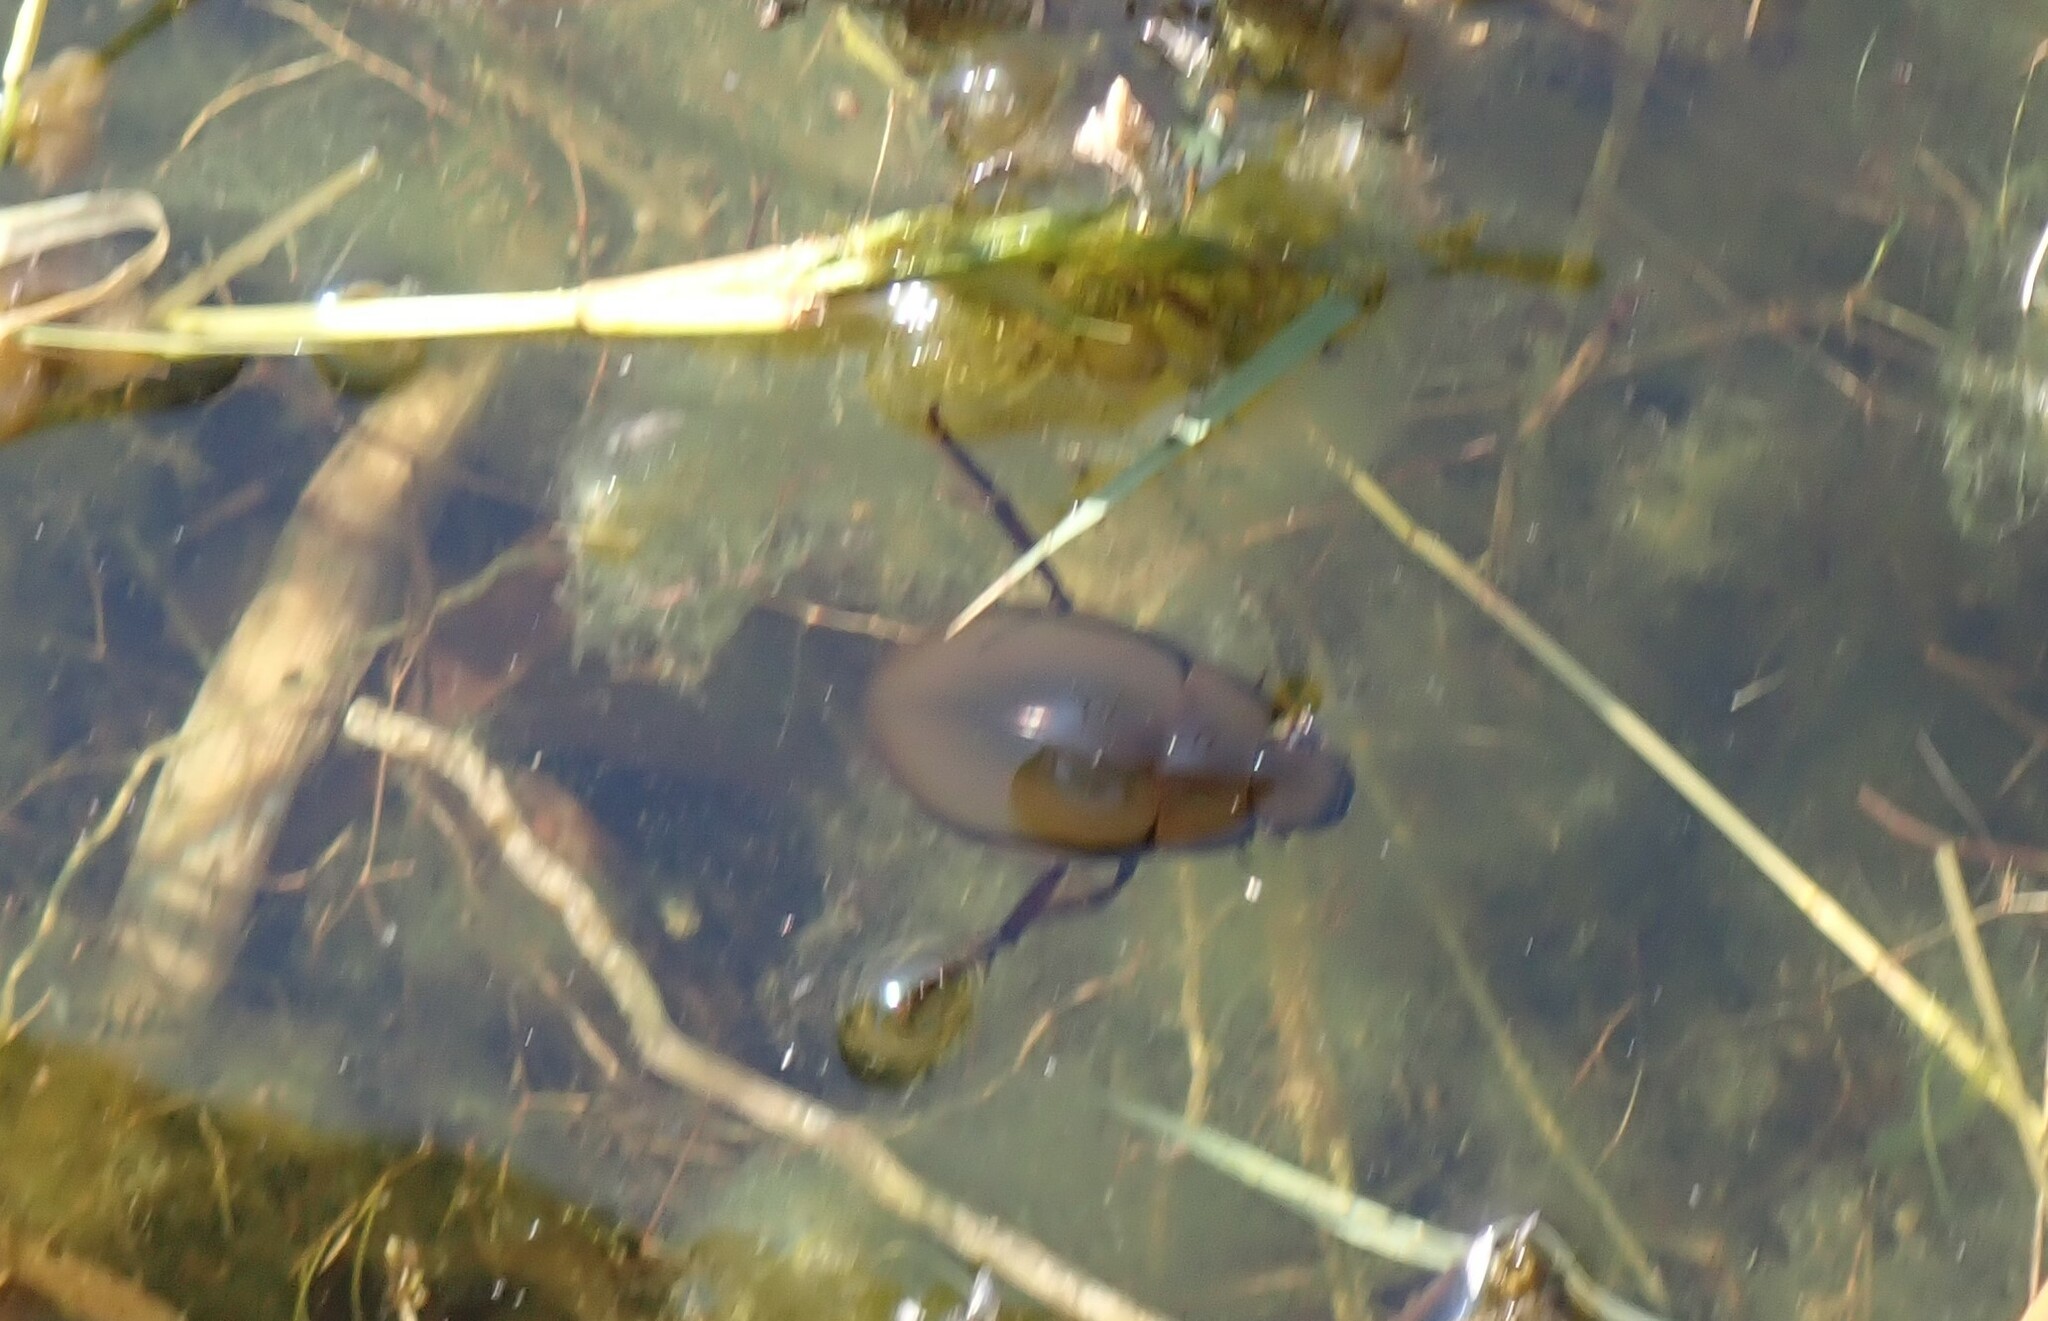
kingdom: Animalia
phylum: Arthropoda
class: Insecta
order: Coleoptera
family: Hydrophilidae
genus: Hydrochara
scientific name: Hydrochara caraboides
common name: Lesser silver water beetle
